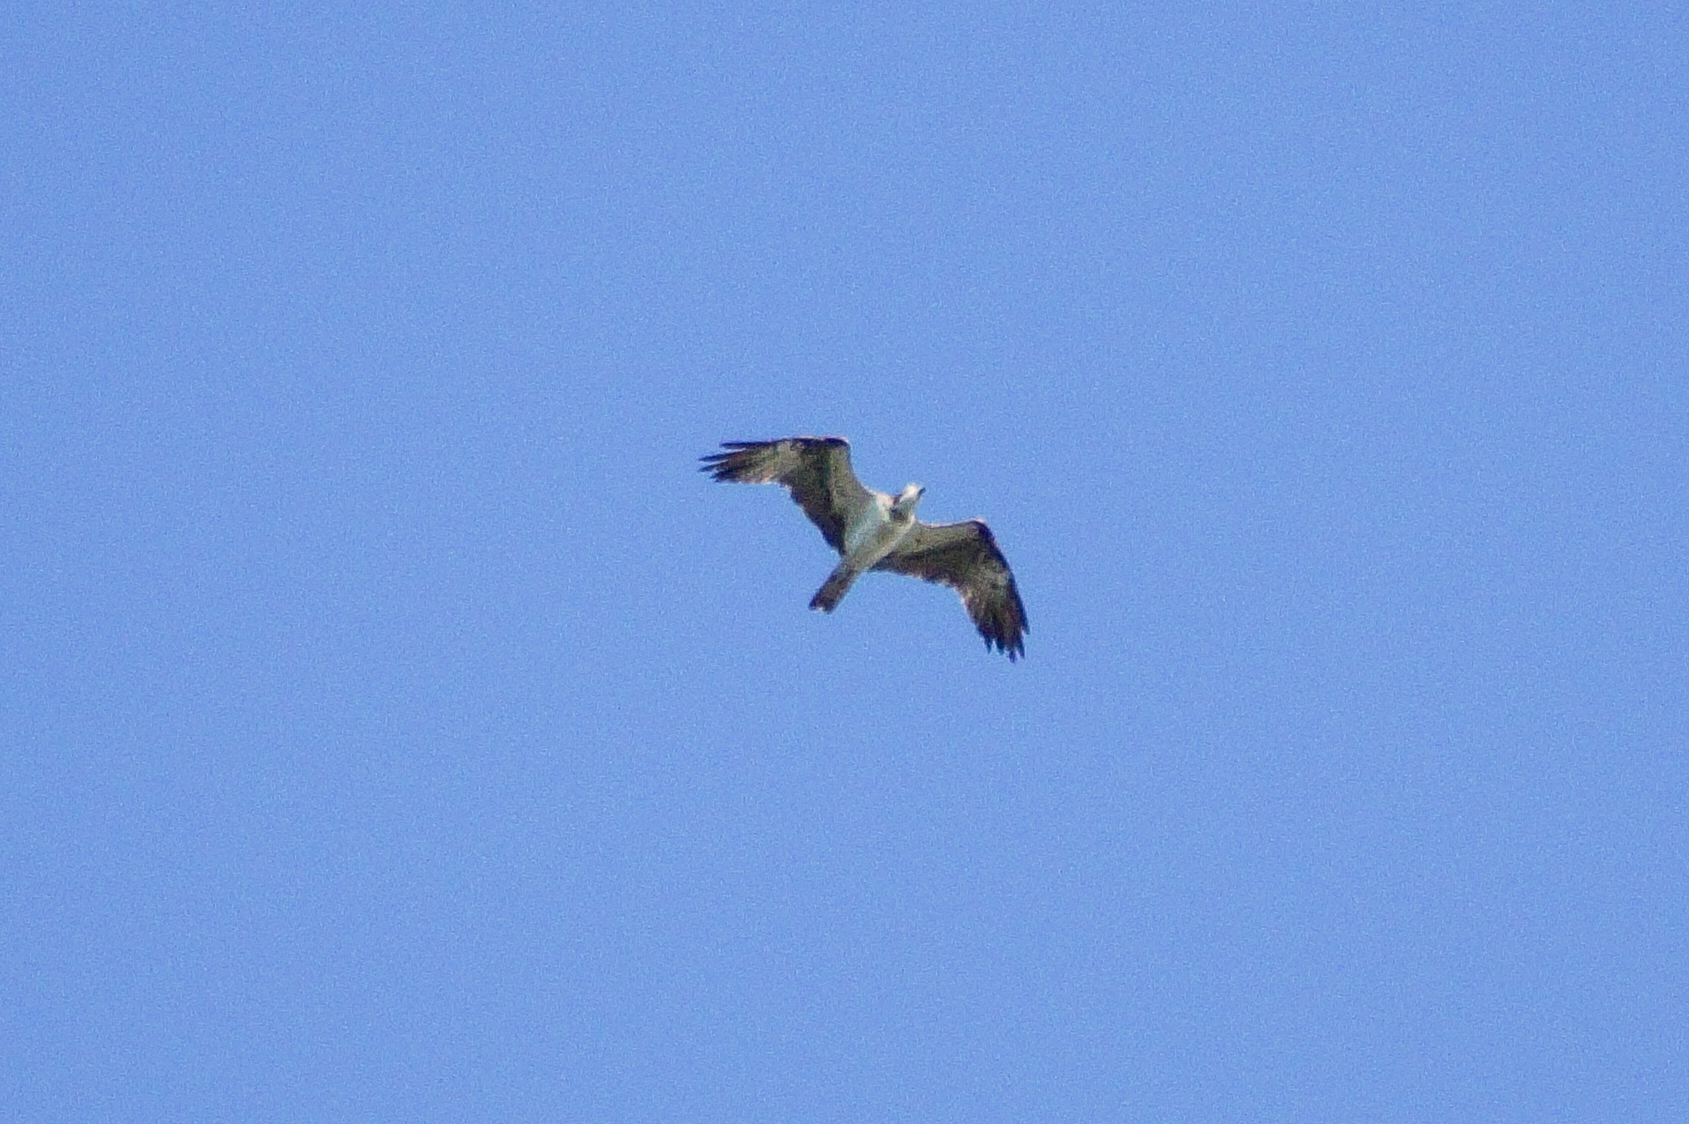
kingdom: Animalia
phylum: Chordata
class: Aves
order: Accipitriformes
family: Pandionidae
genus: Pandion
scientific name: Pandion haliaetus
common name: Osprey
